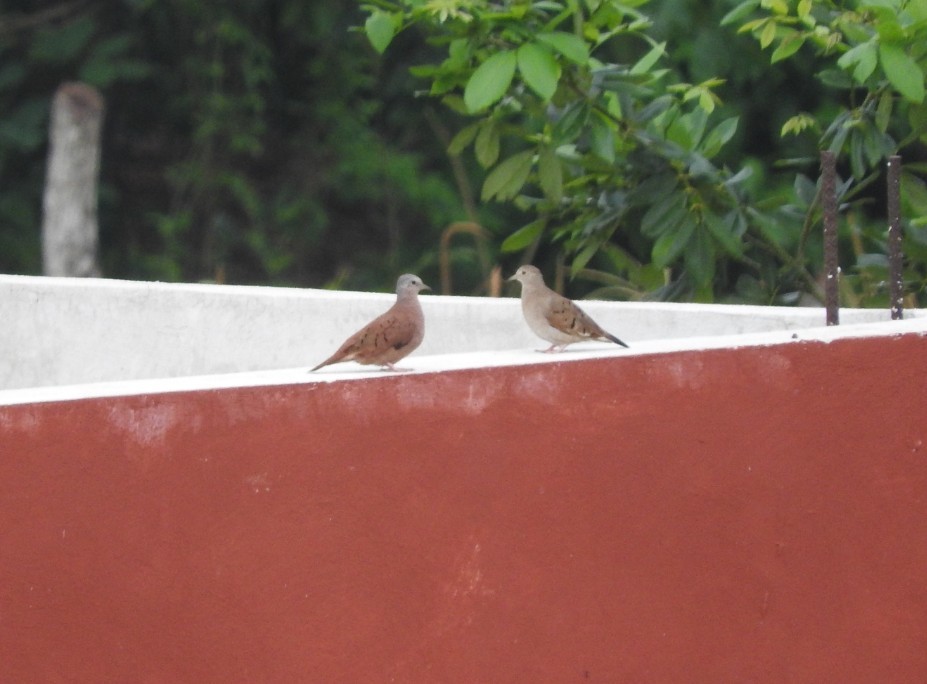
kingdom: Animalia
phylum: Chordata
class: Aves
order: Columbiformes
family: Columbidae
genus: Columbina
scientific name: Columbina talpacoti
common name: Ruddy ground dove
